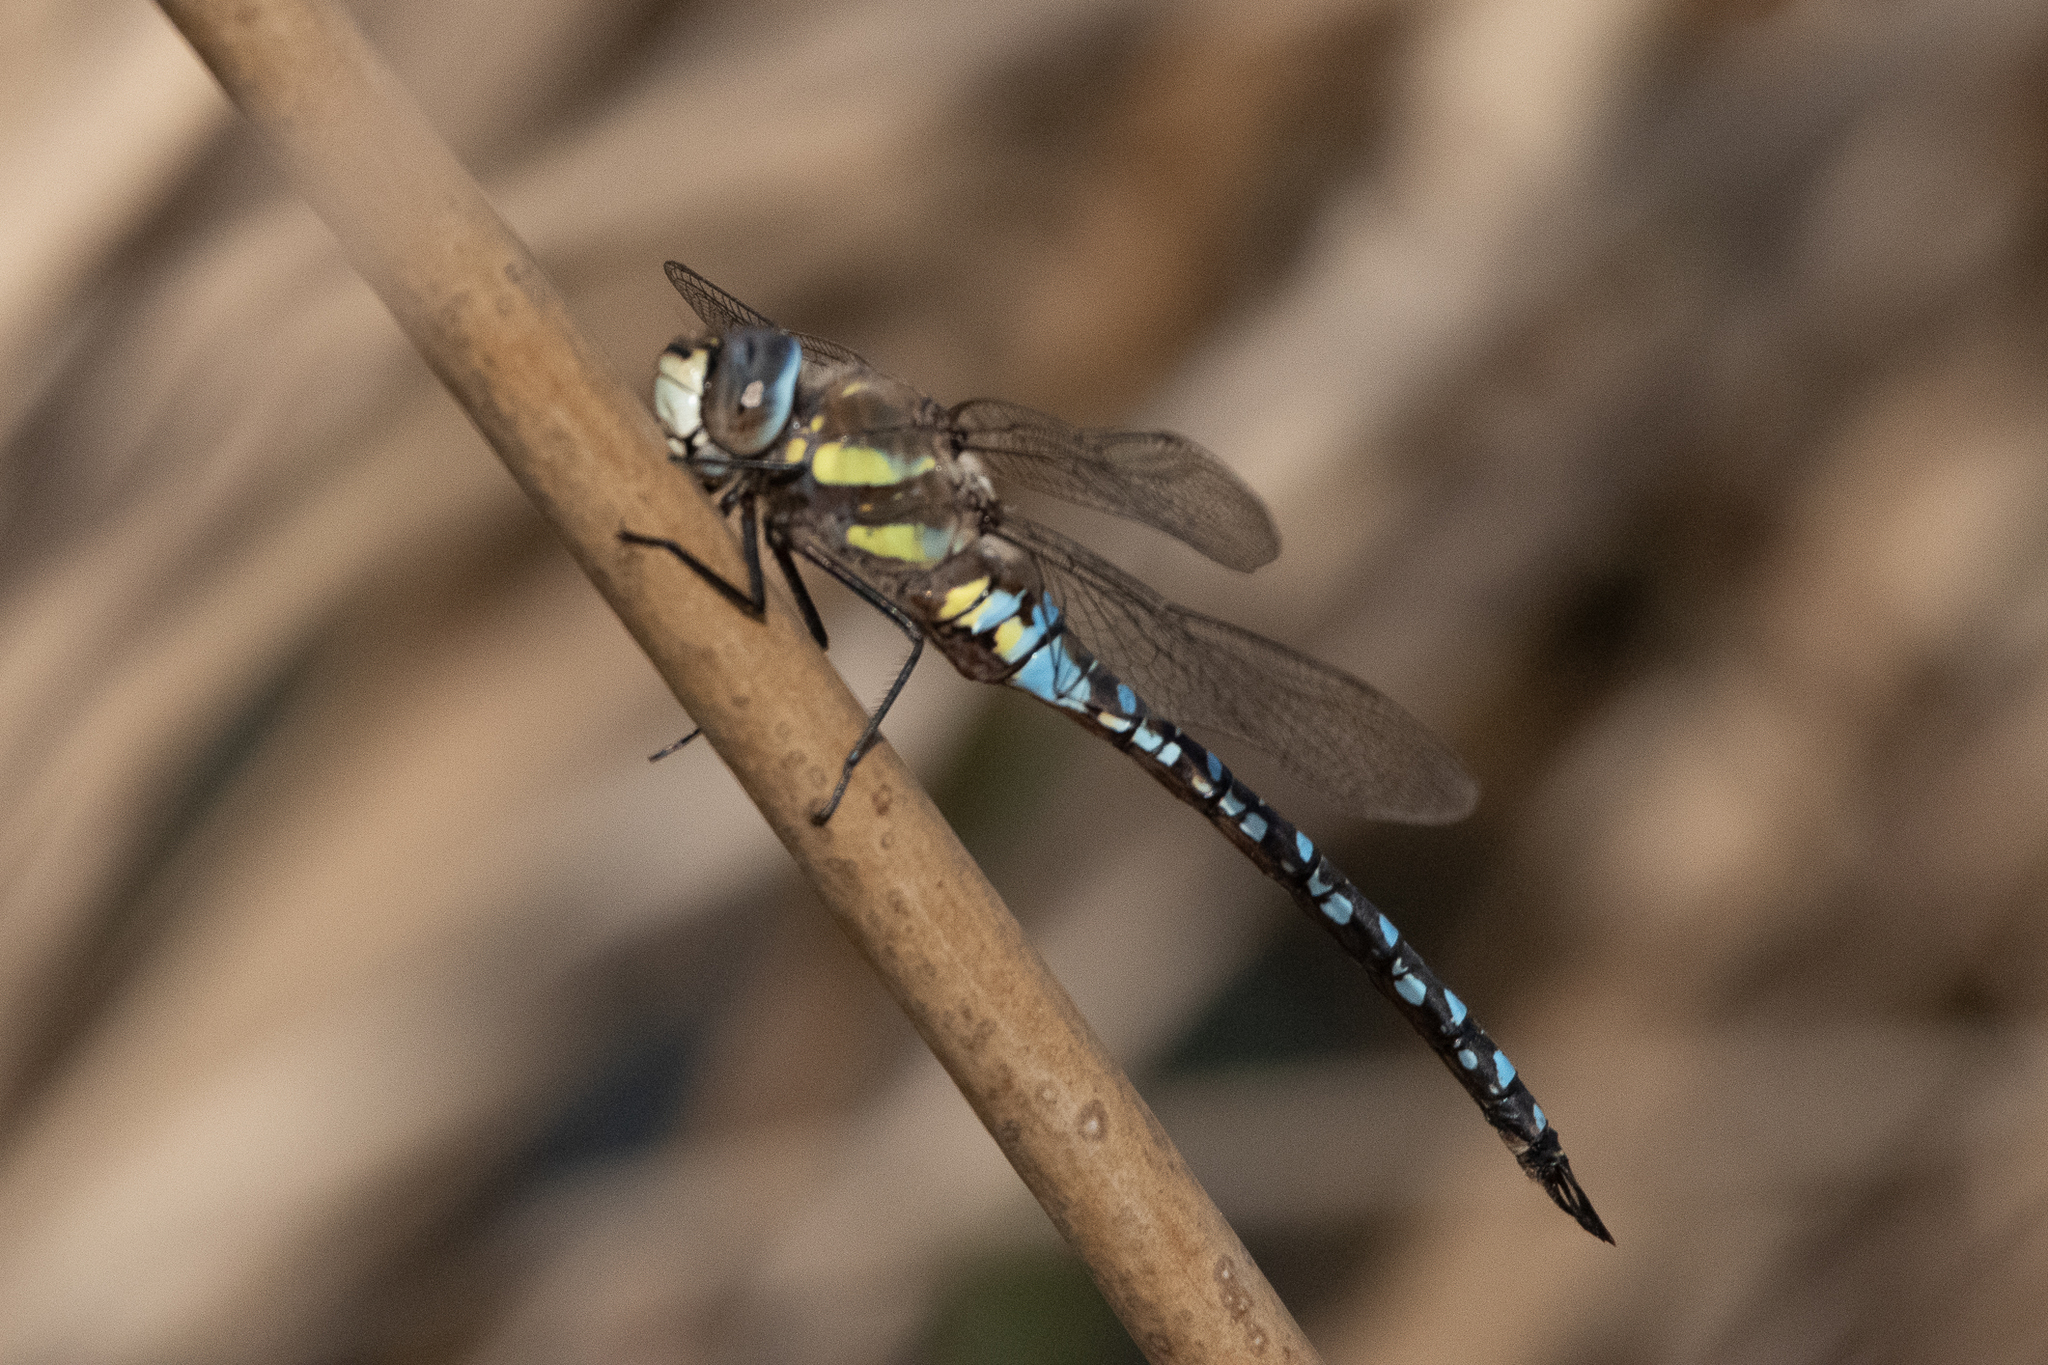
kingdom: Animalia
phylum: Arthropoda
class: Insecta
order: Odonata
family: Aeshnidae
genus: Aeshna
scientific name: Aeshna juncea
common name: Moorland hawker
